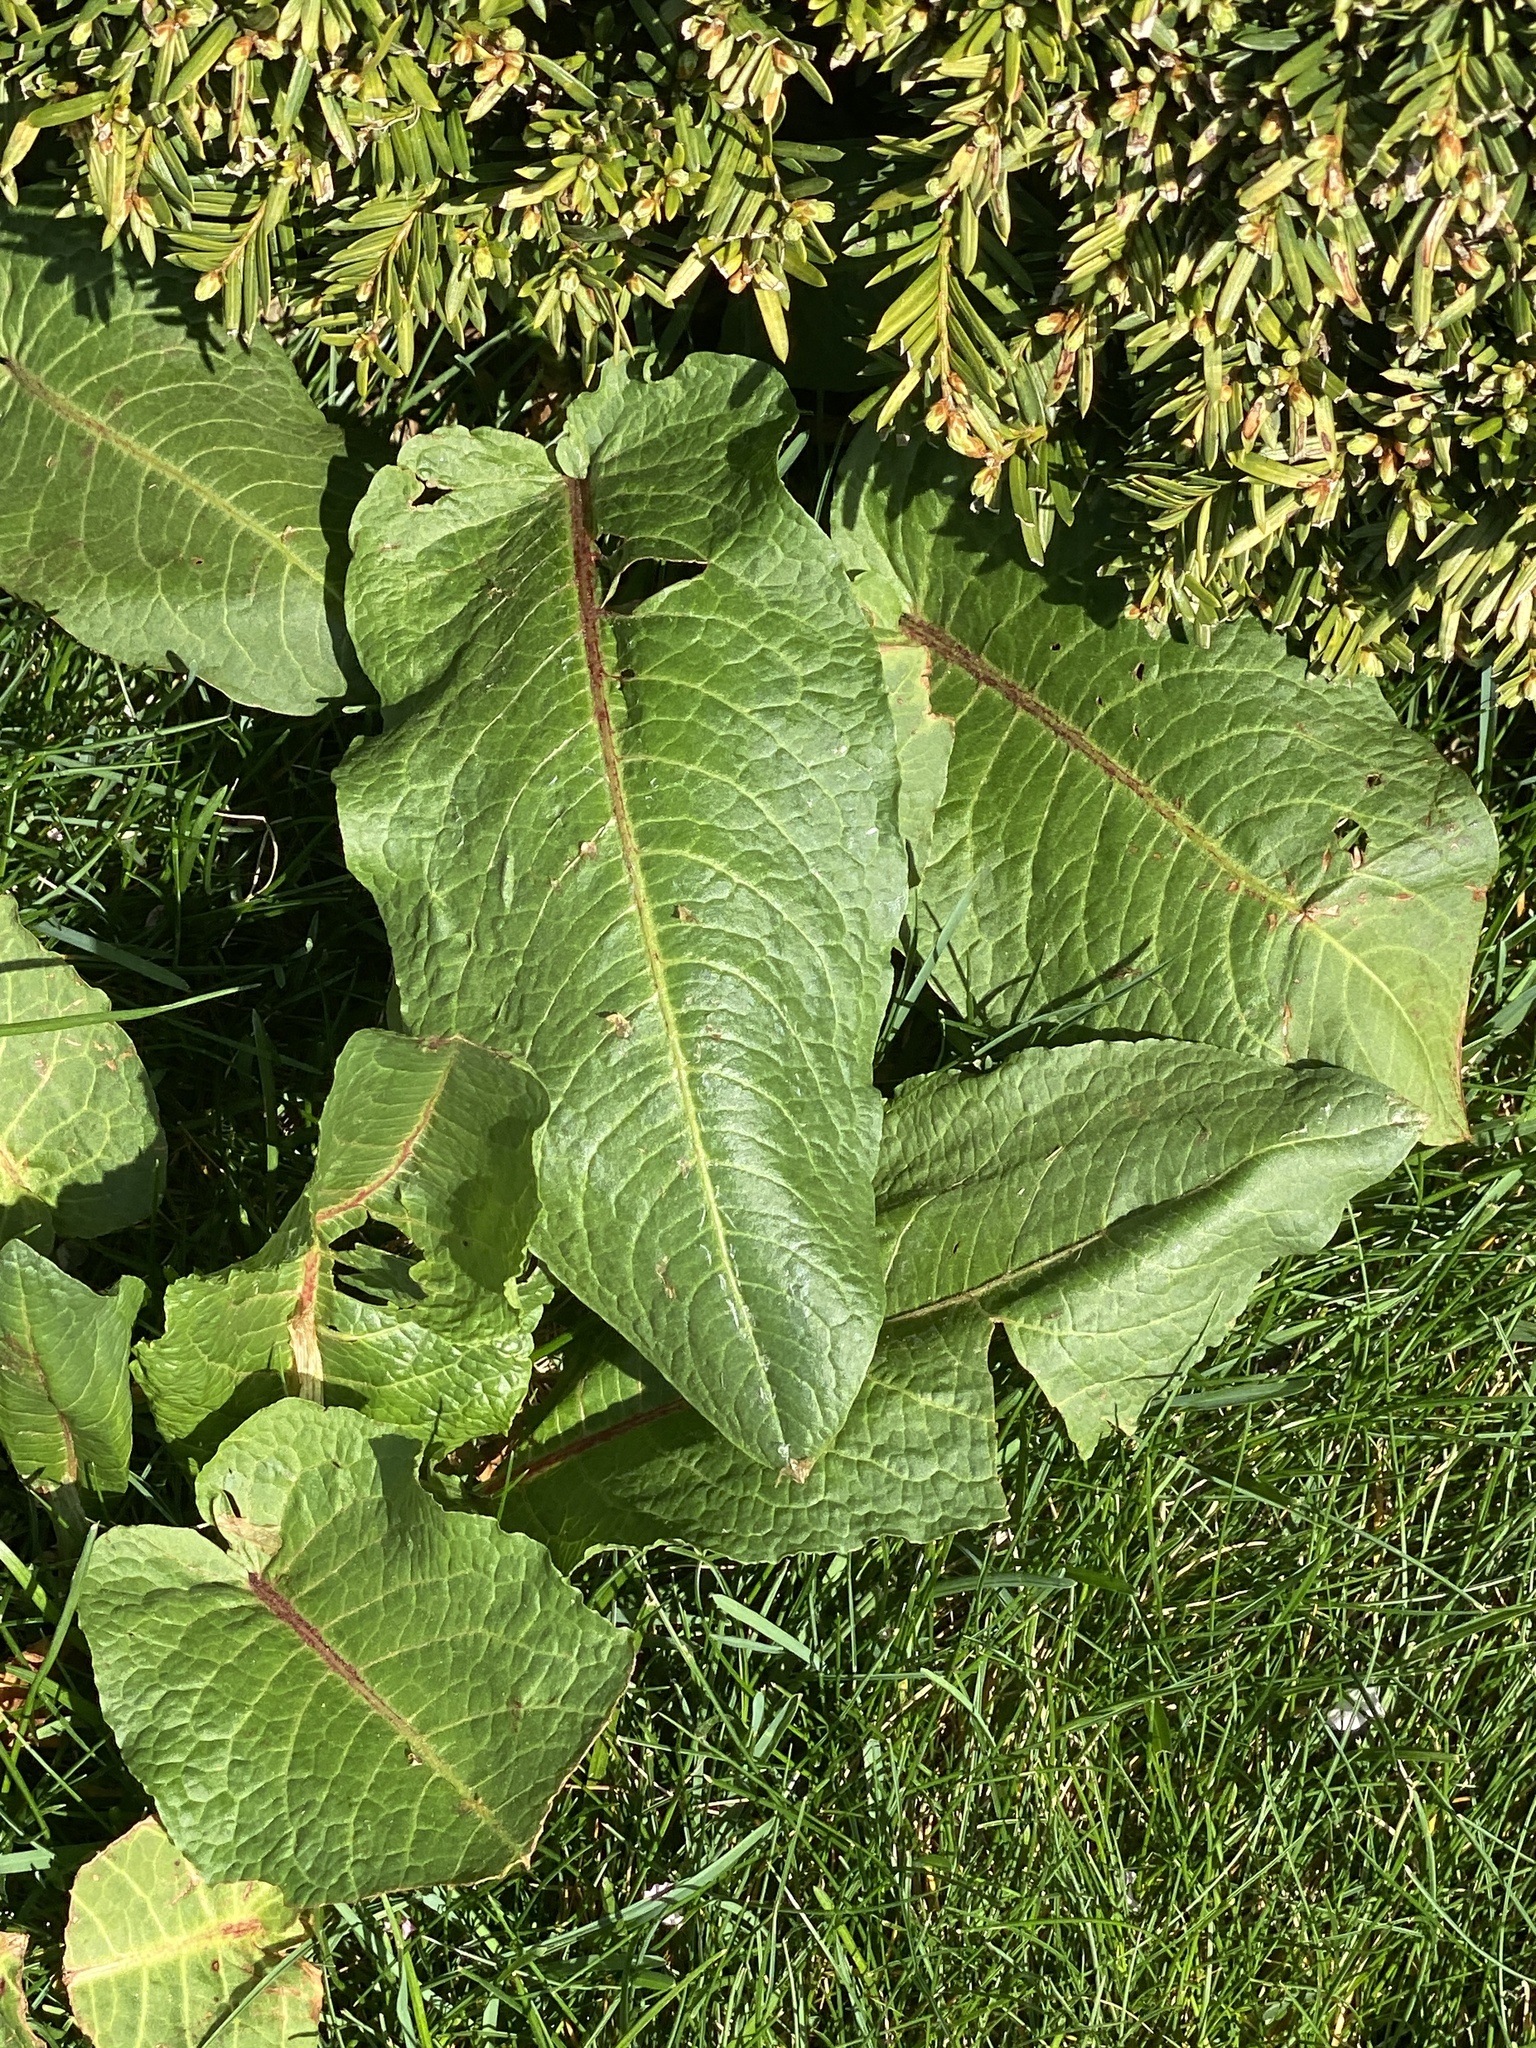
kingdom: Plantae
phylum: Tracheophyta
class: Magnoliopsida
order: Caryophyllales
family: Polygonaceae
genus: Rumex
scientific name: Rumex obtusifolius
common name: Bitter dock
